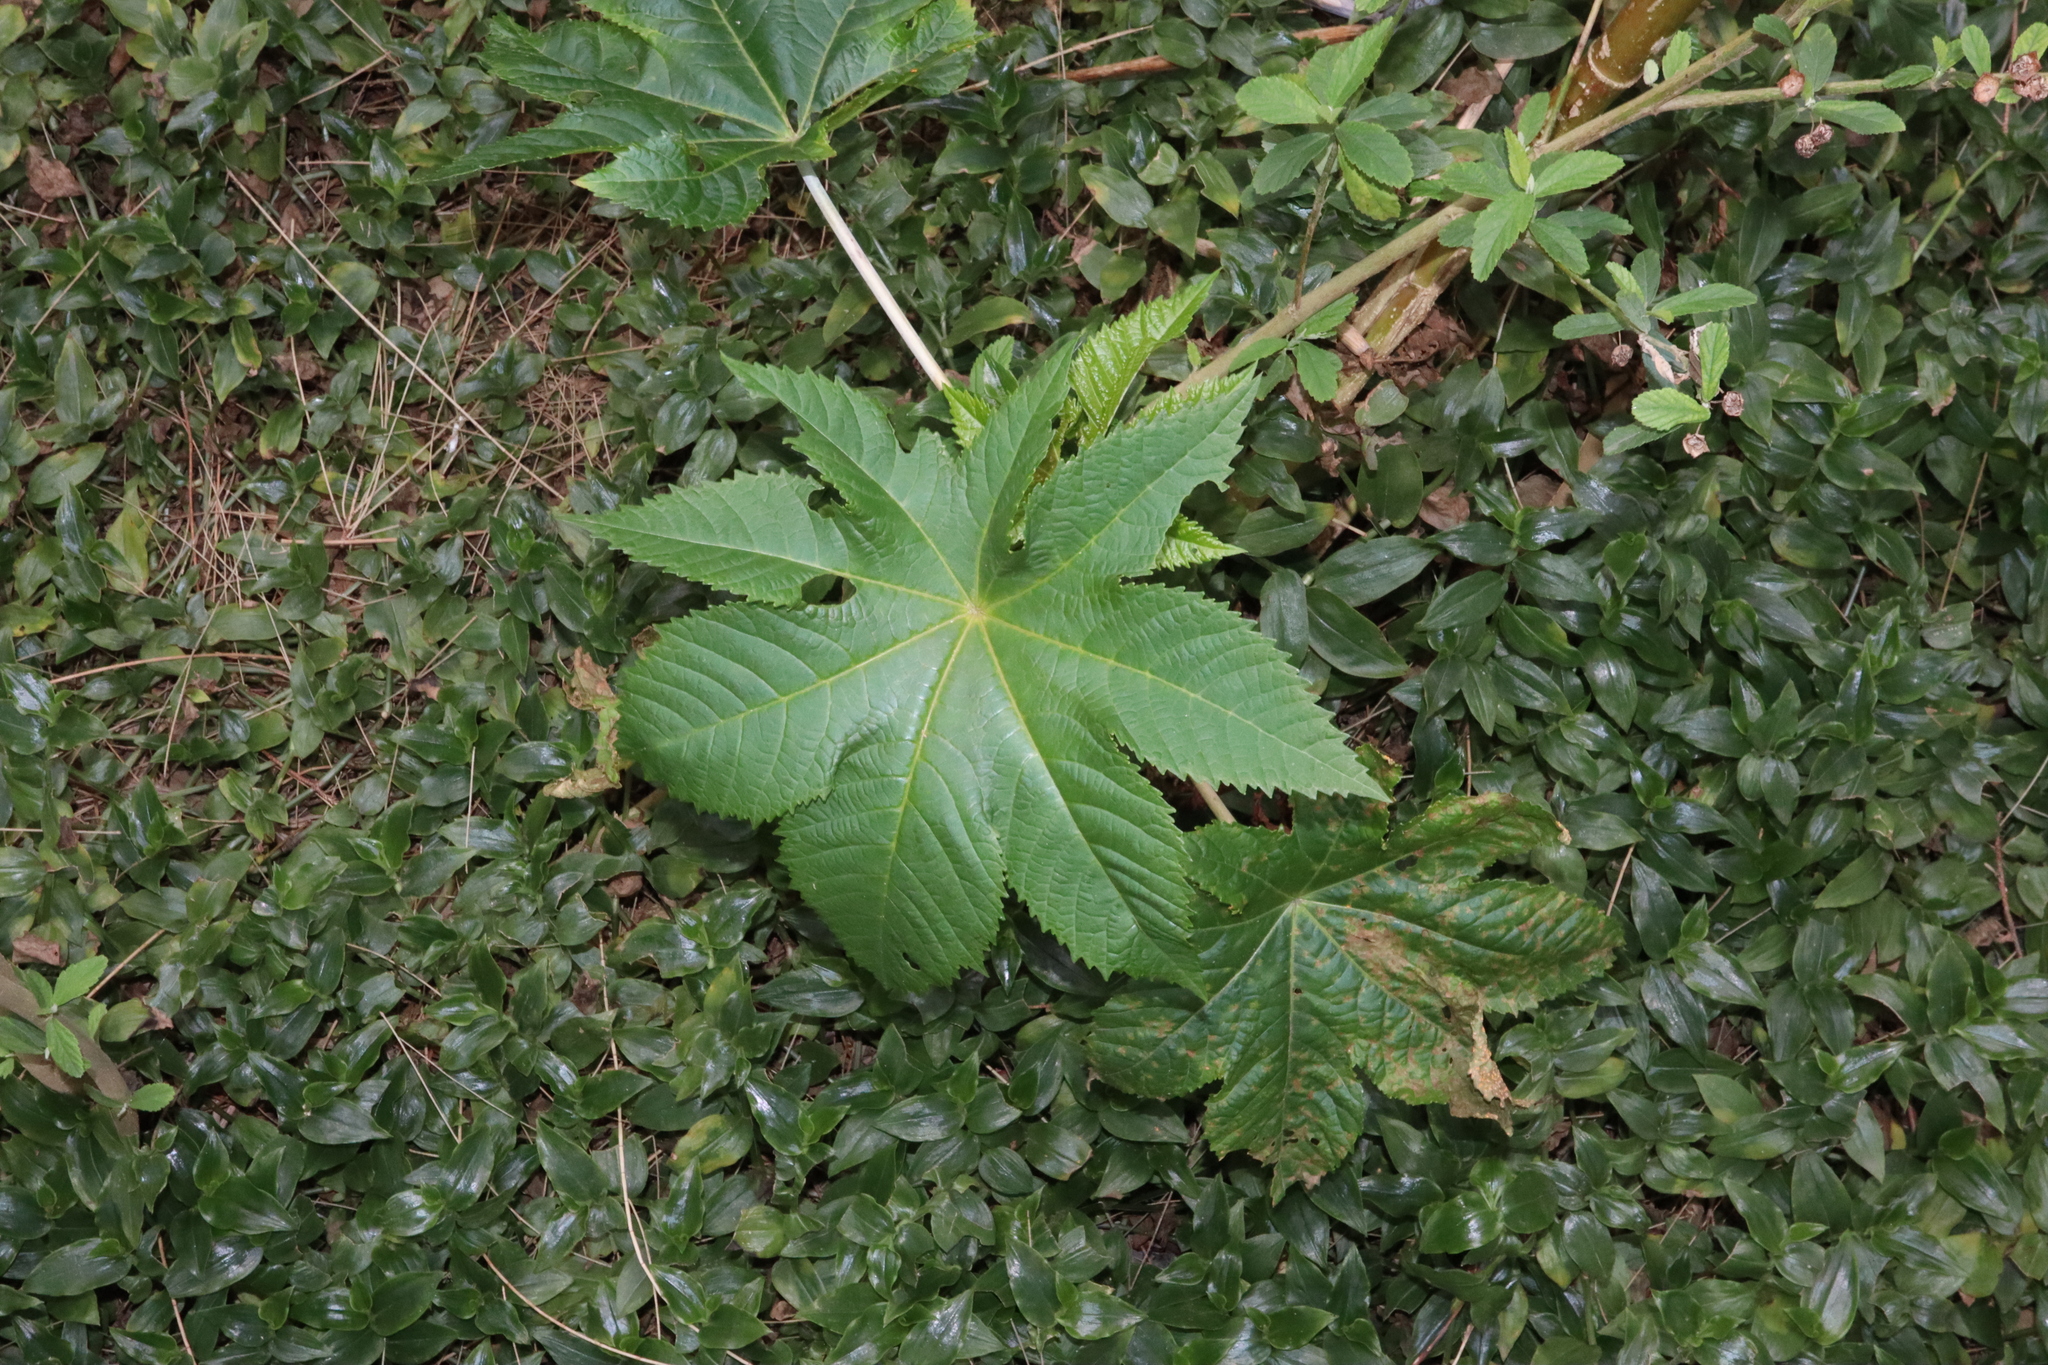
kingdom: Plantae
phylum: Tracheophyta
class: Magnoliopsida
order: Malpighiales
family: Euphorbiaceae
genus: Ricinus
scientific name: Ricinus communis
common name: Castor-oil-plant
